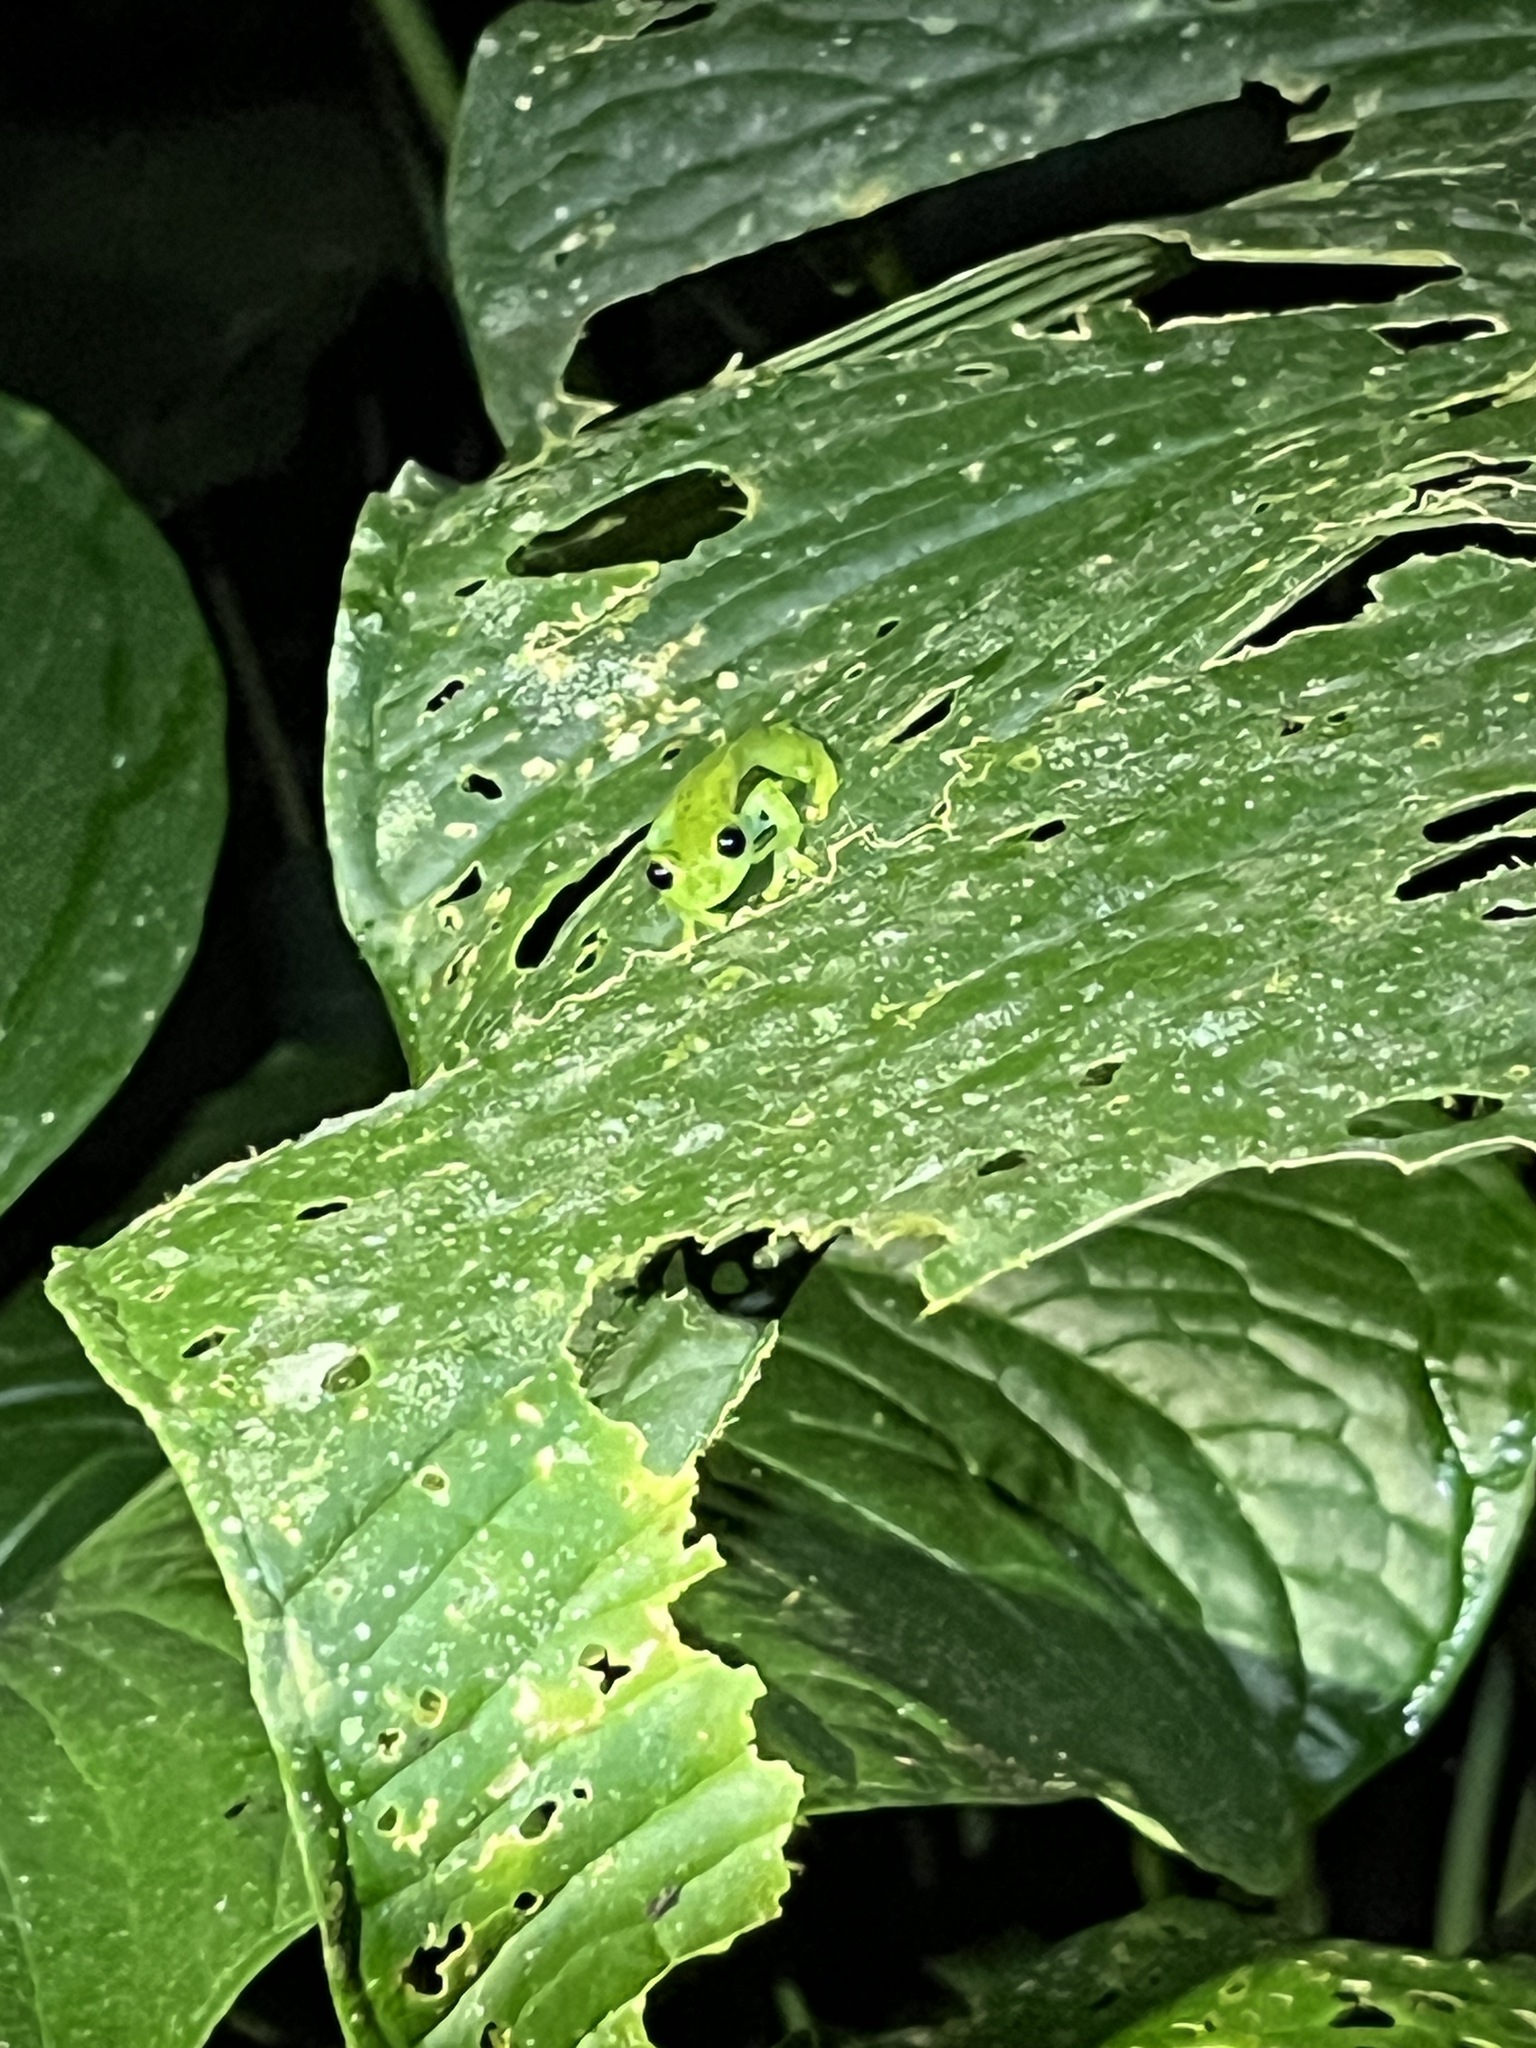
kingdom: Animalia
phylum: Chordata
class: Amphibia
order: Anura
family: Centrolenidae
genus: Espadarana
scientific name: Espadarana prosoblepon
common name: Rana de cristal variable
